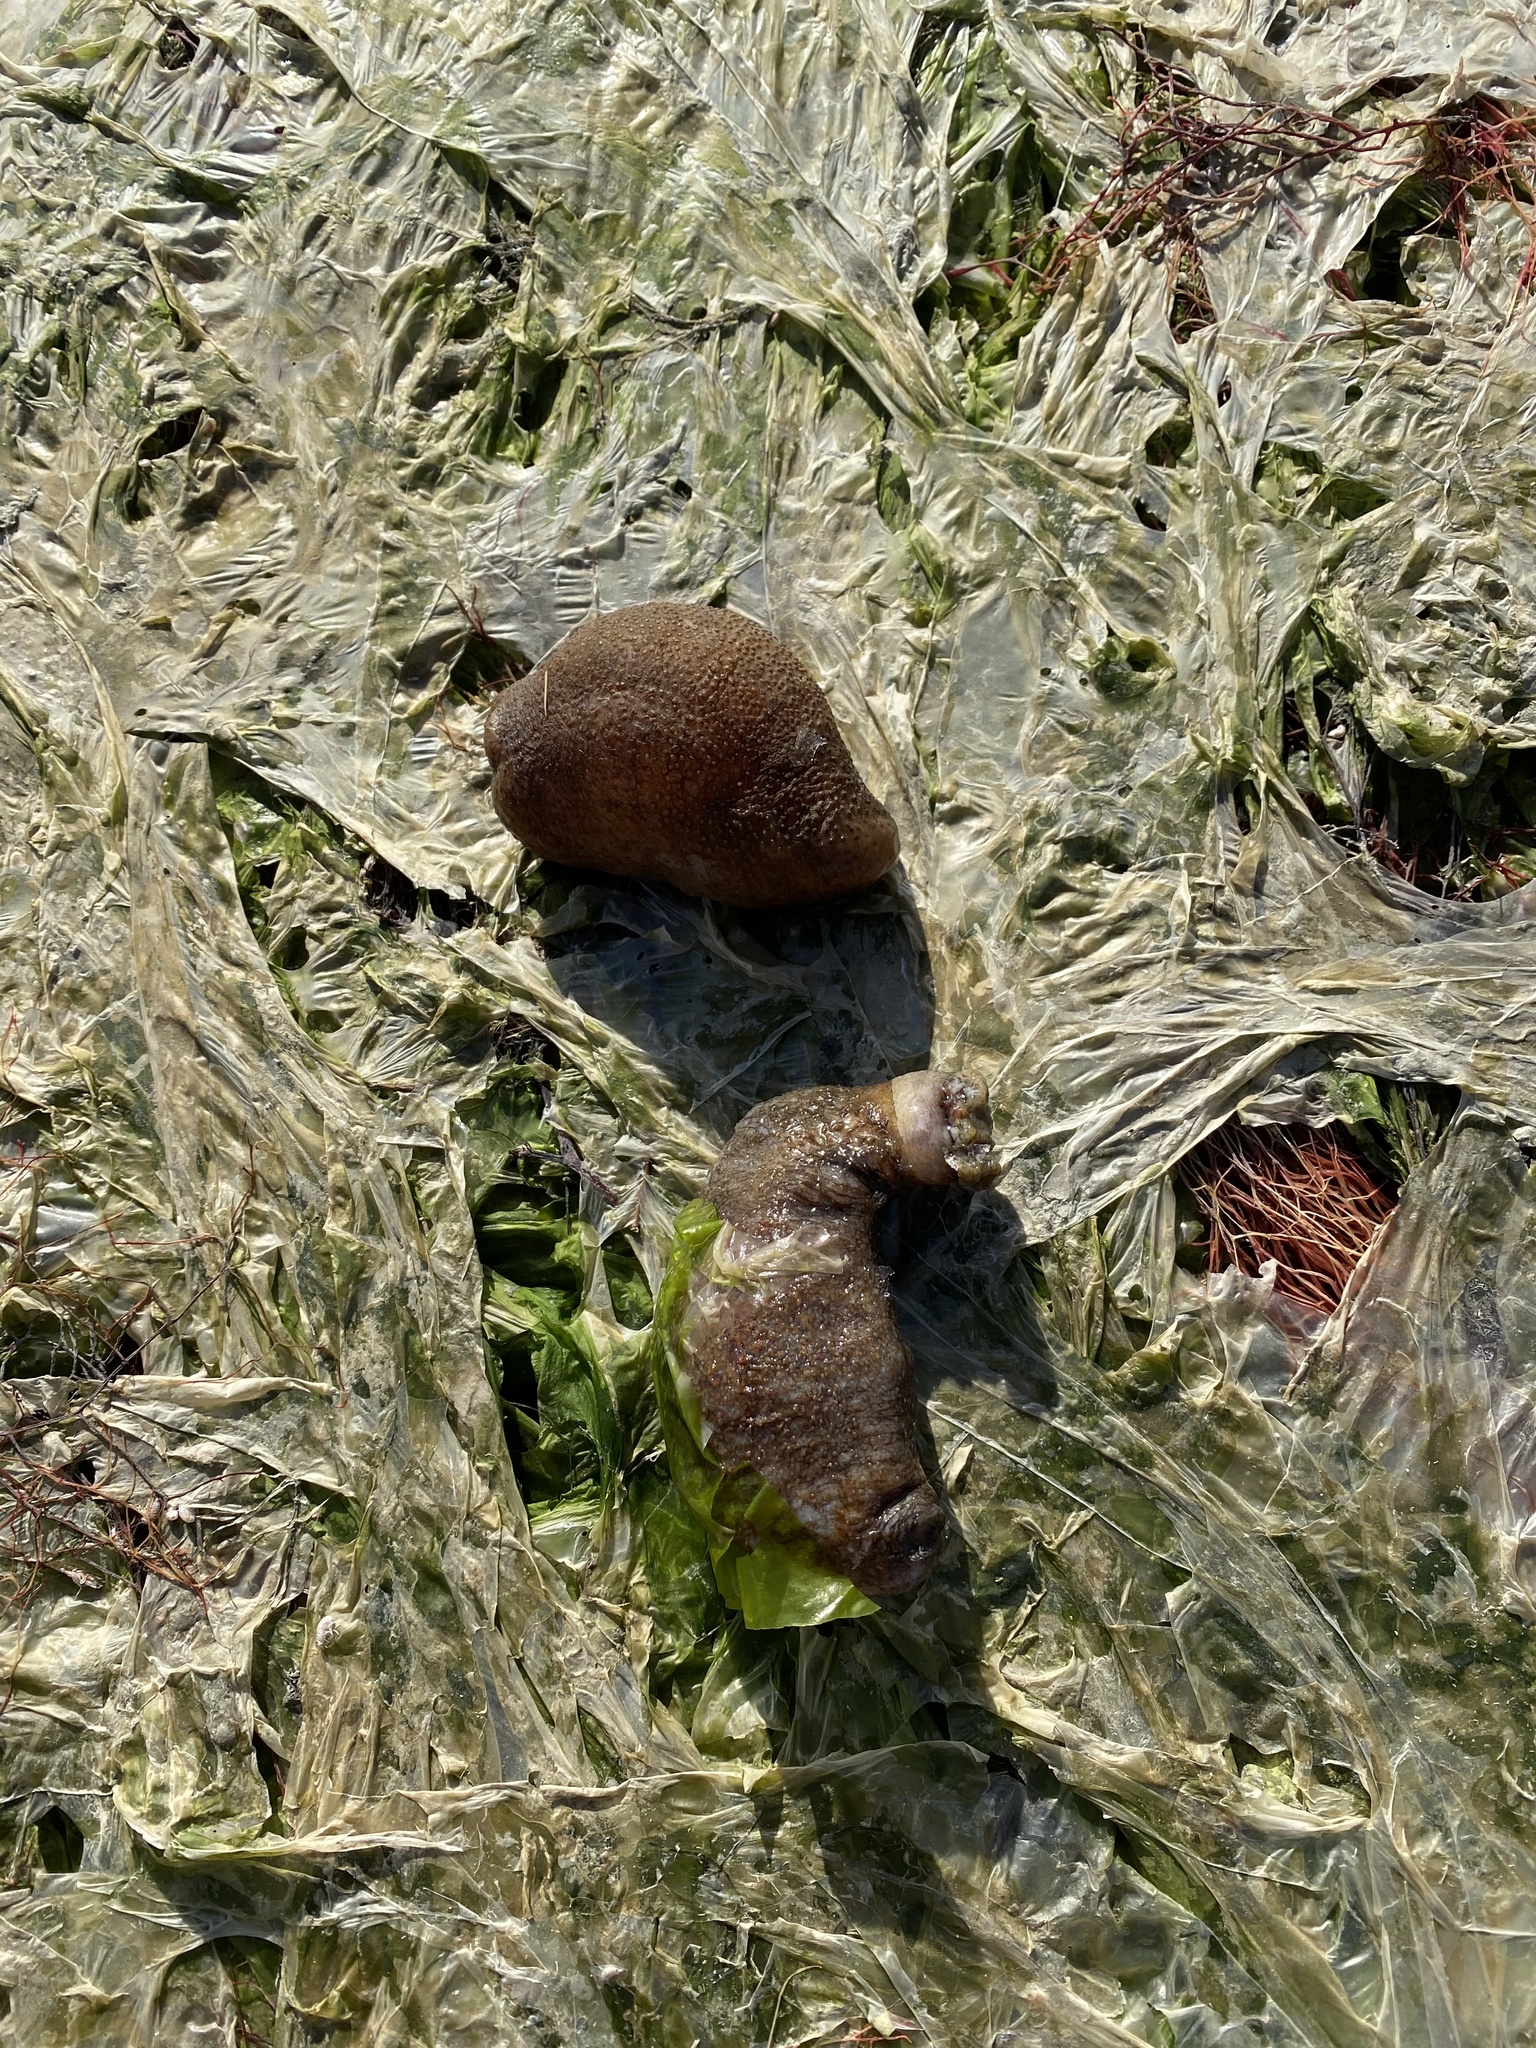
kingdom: Animalia
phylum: Echinodermata
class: Holothuroidea
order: Dendrochirotida
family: Sclerodactylidae
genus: Sclerodactyla
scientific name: Sclerodactyla briareus
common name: Hard-fingered sea cucumber
